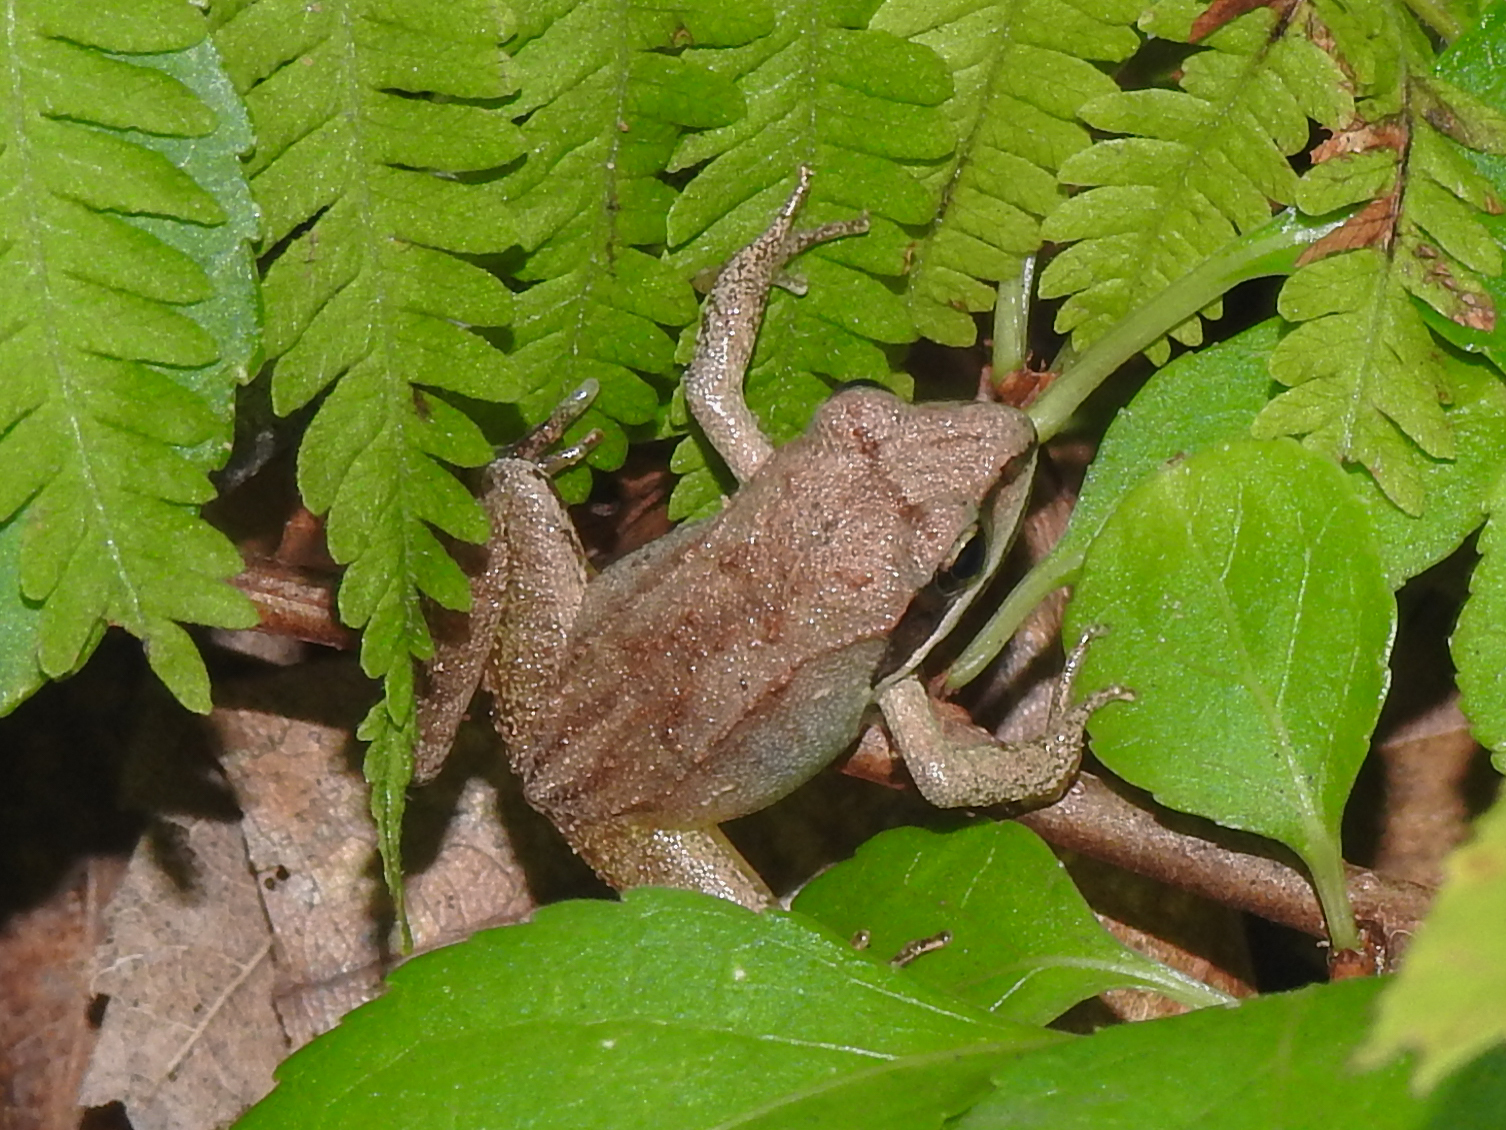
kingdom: Animalia
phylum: Chordata
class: Amphibia
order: Anura
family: Ranidae
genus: Lithobates
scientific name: Lithobates sylvaticus
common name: Wood frog
